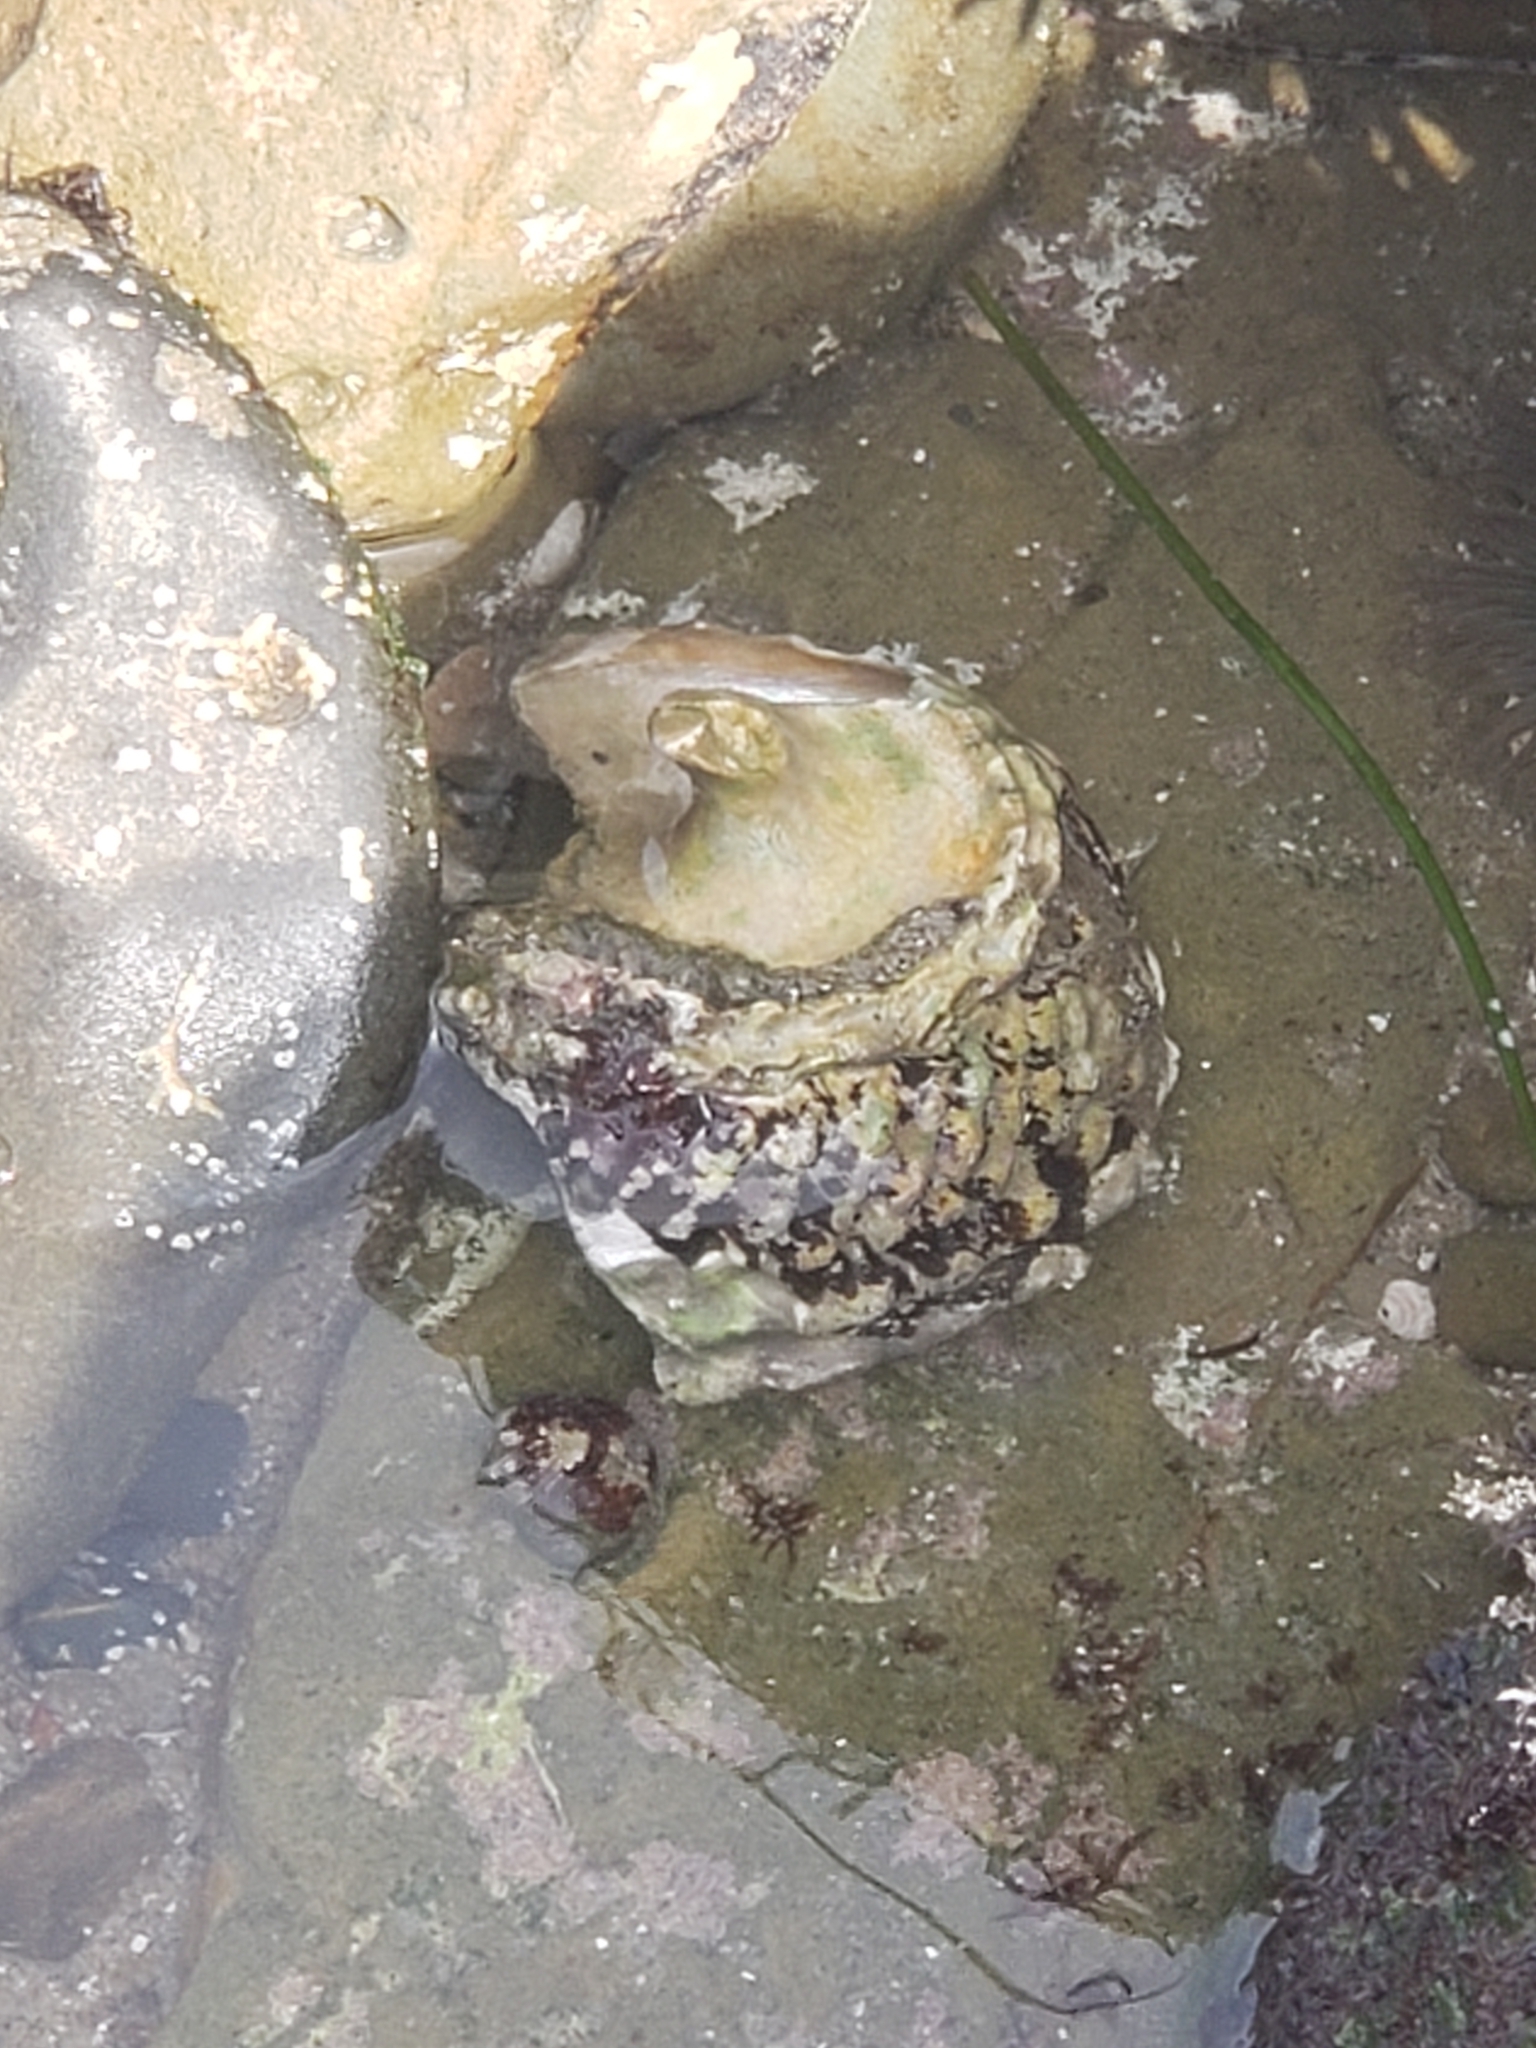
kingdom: Animalia
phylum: Mollusca
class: Gastropoda
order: Trochida
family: Turbinidae
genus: Megastraea
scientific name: Megastraea undosa
